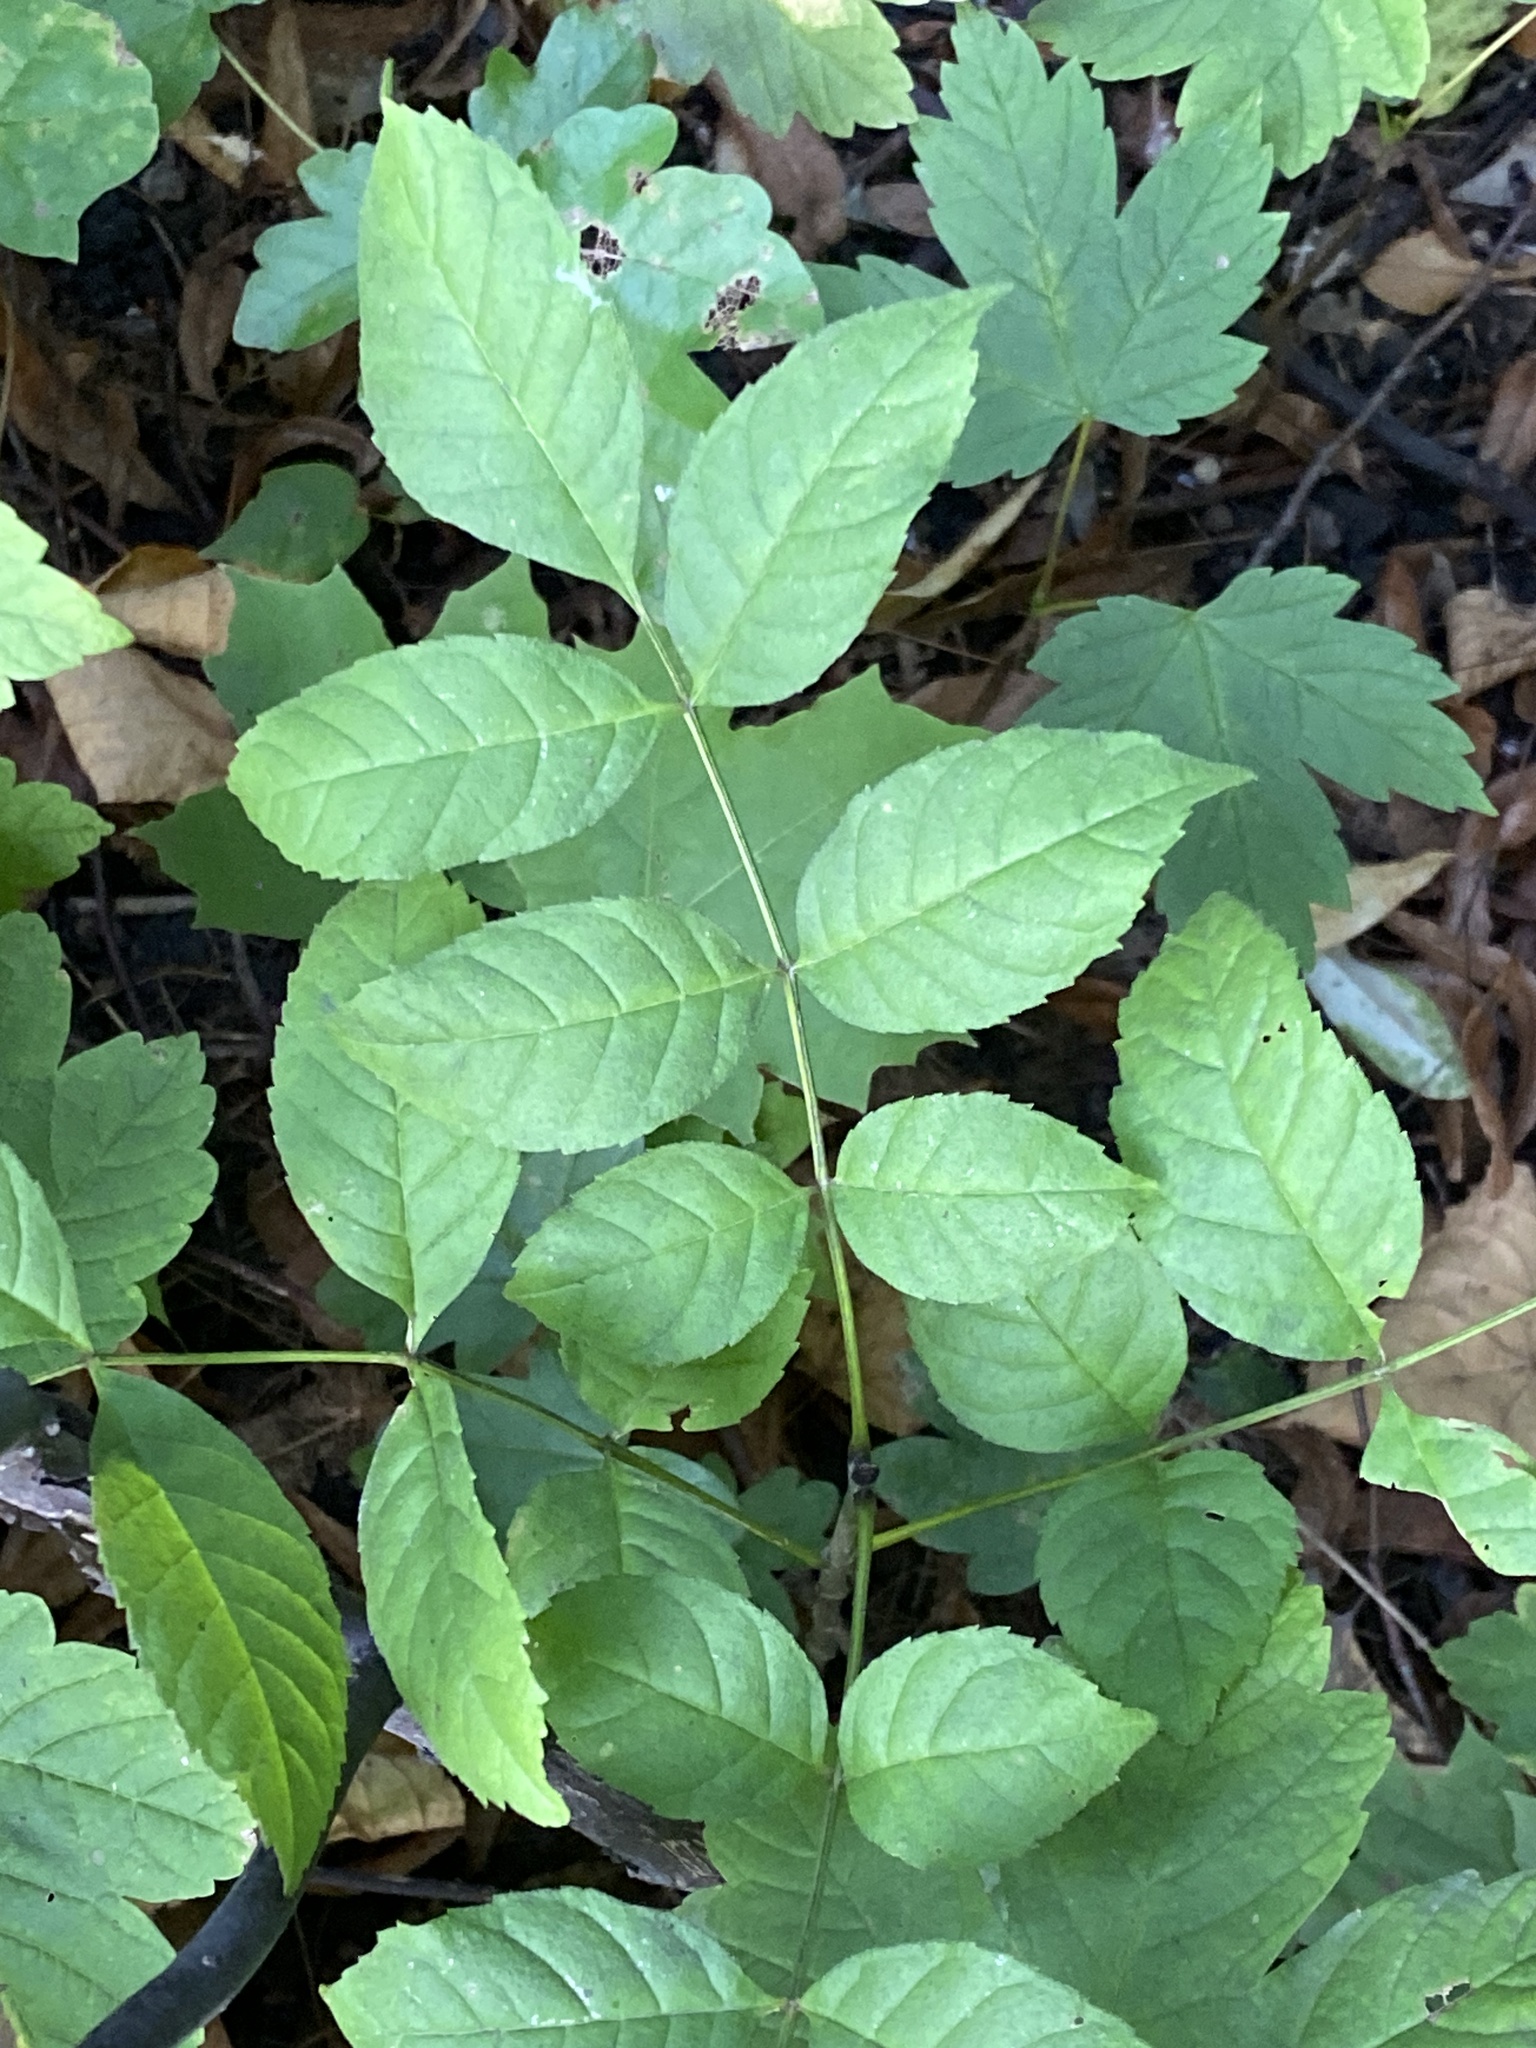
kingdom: Plantae
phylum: Tracheophyta
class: Magnoliopsida
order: Lamiales
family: Oleaceae
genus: Fraxinus
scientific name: Fraxinus excelsior
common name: European ash
